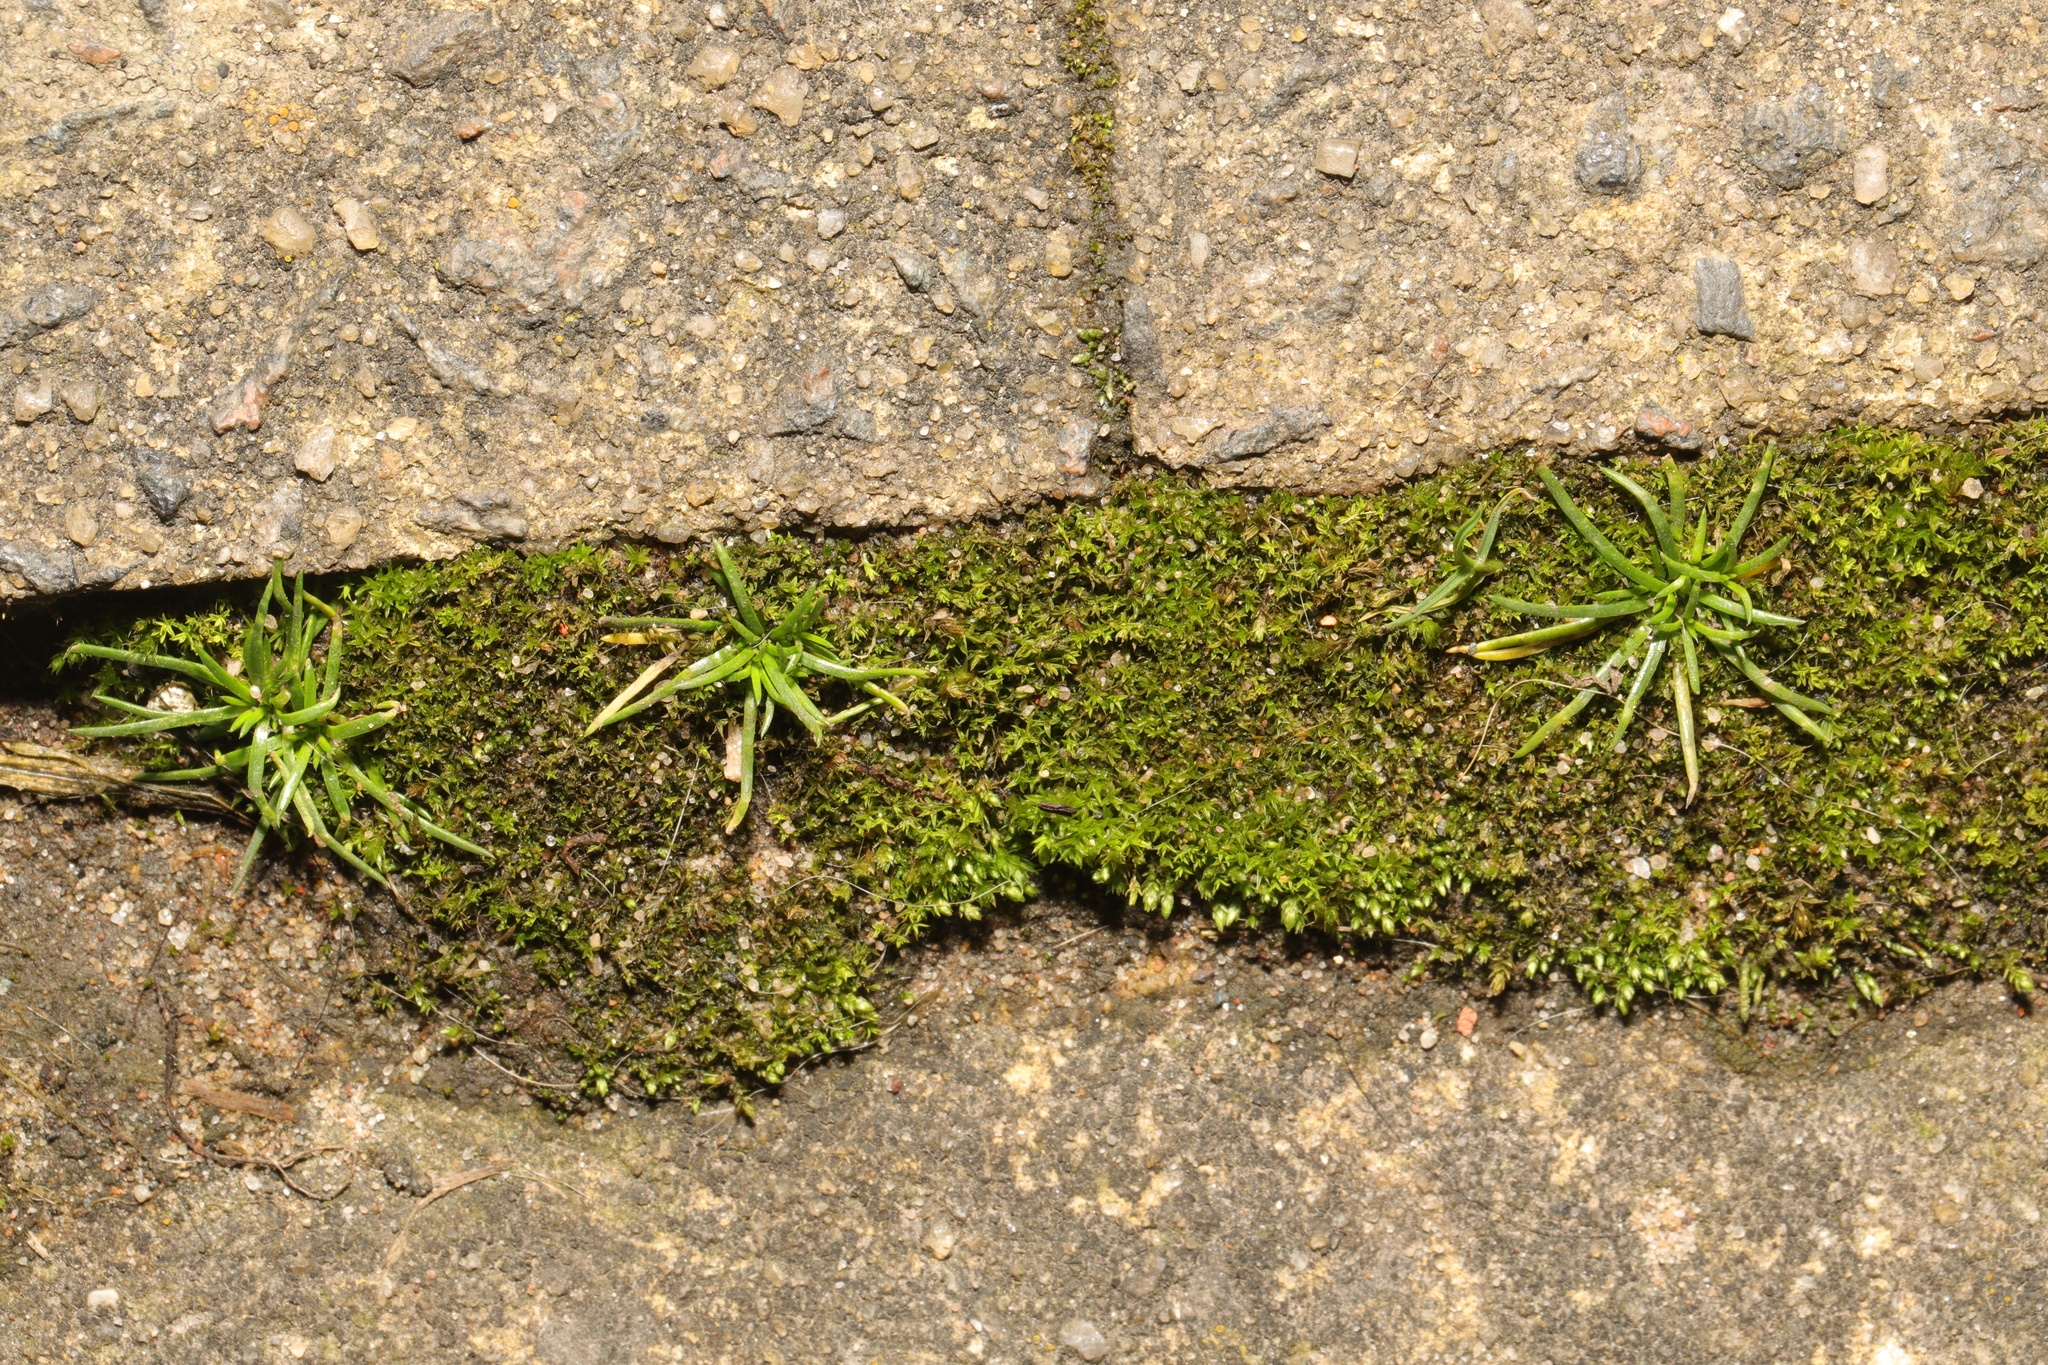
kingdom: Plantae
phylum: Tracheophyta
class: Magnoliopsida
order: Caryophyllales
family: Caryophyllaceae
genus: Sagina
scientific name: Sagina procumbens
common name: Procumbent pearlwort
